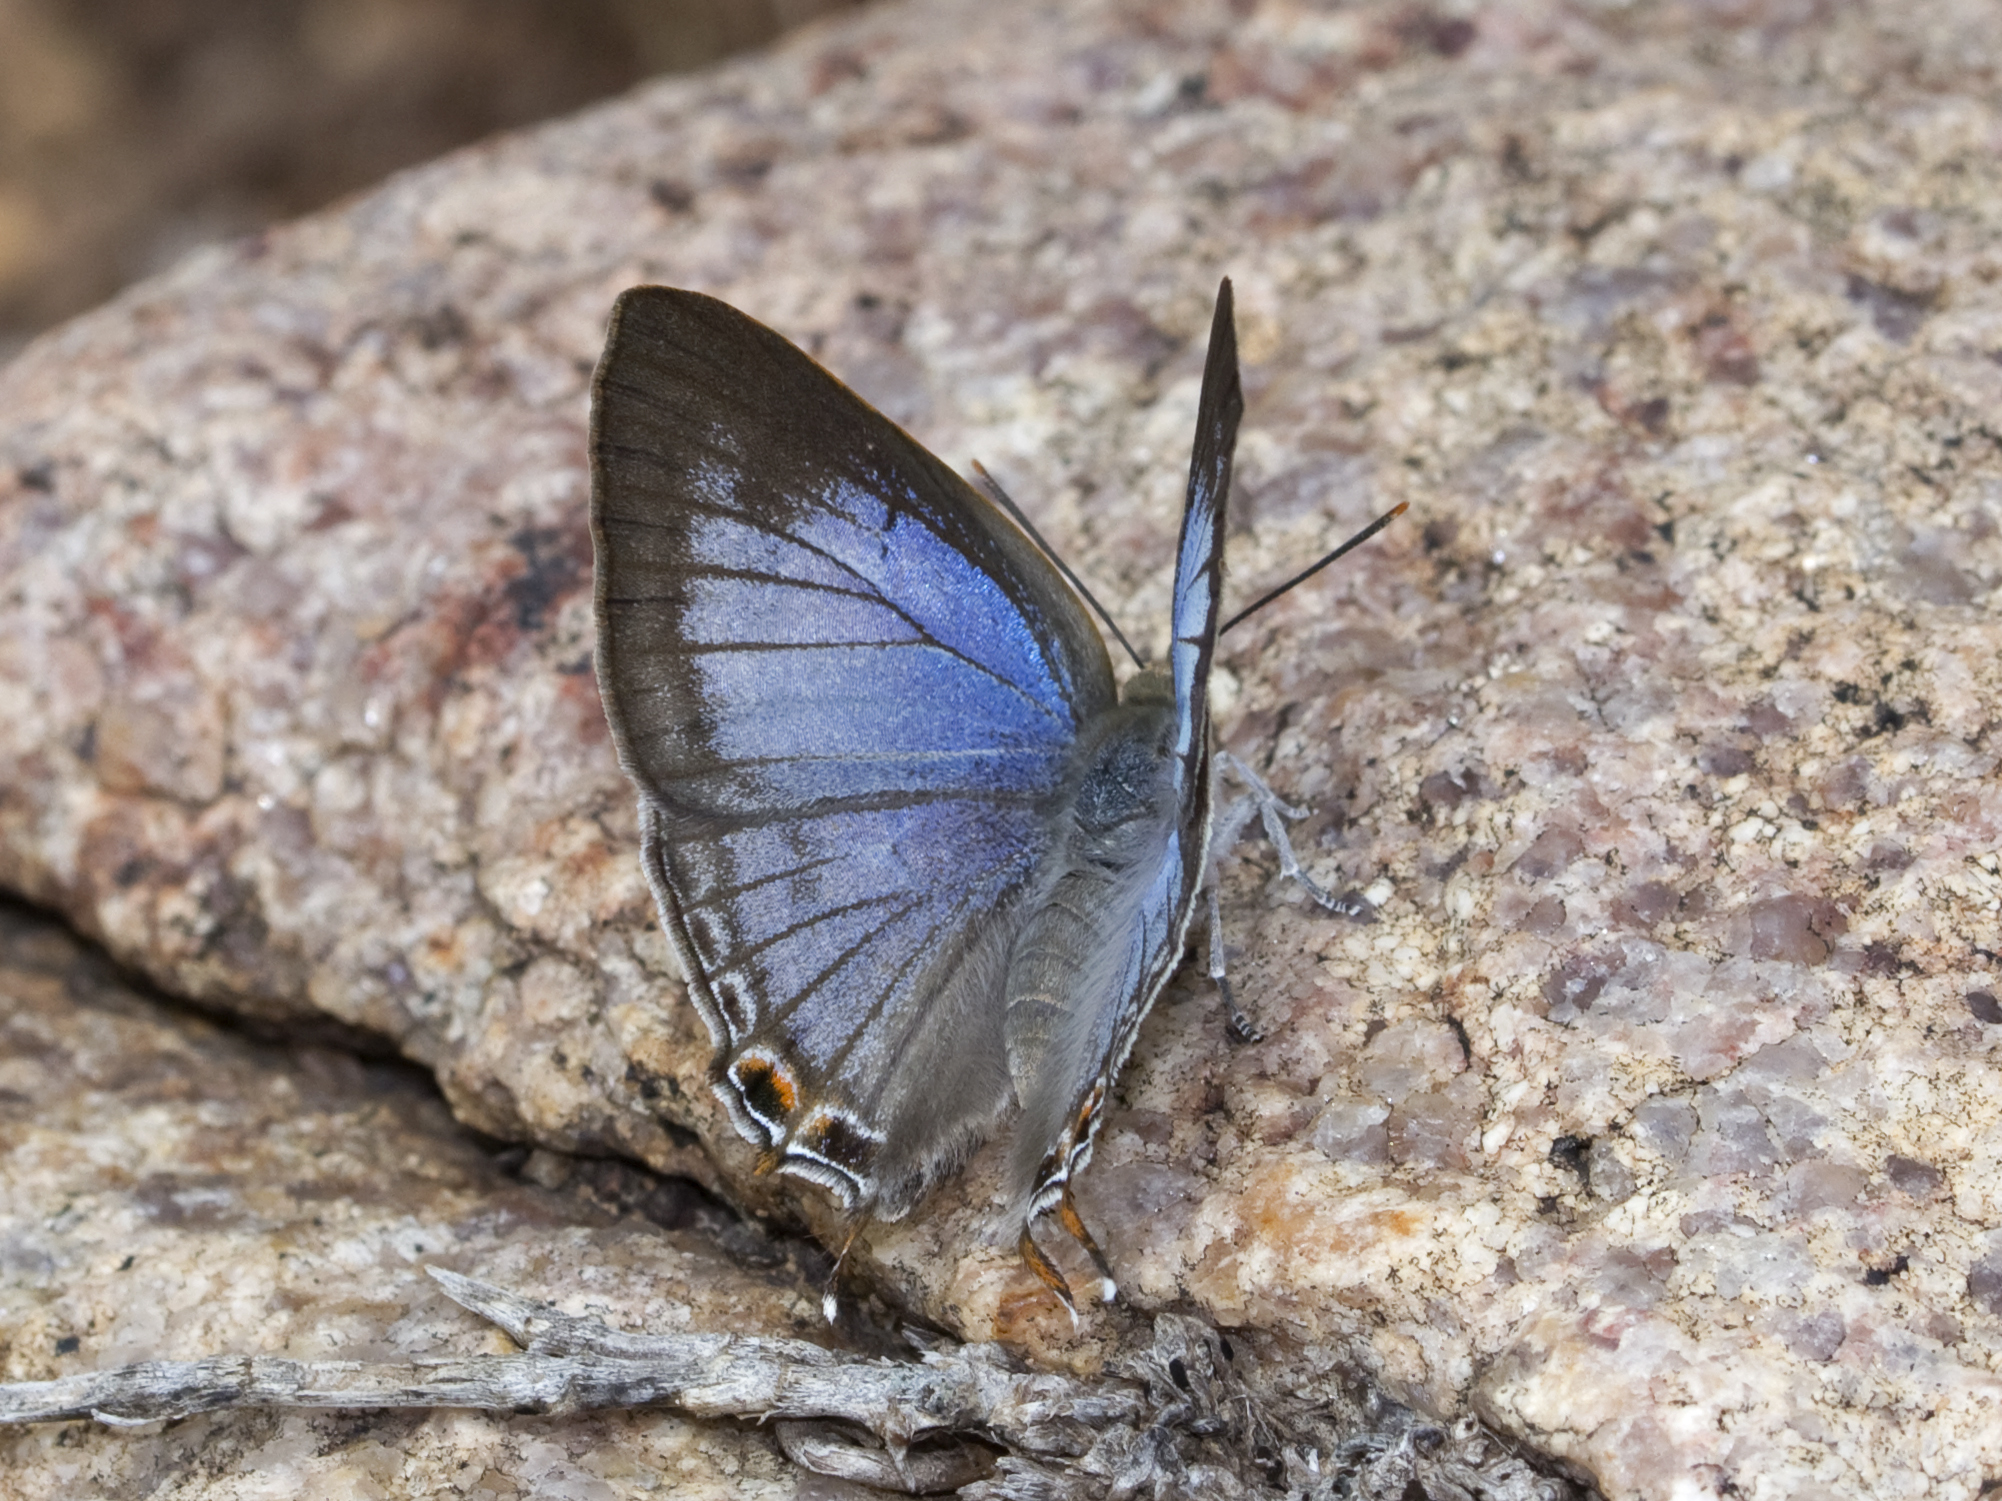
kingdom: Animalia
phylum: Arthropoda
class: Insecta
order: Lepidoptera
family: Lycaenidae
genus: Zesius
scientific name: Zesius chrysomallus
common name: Redspot
